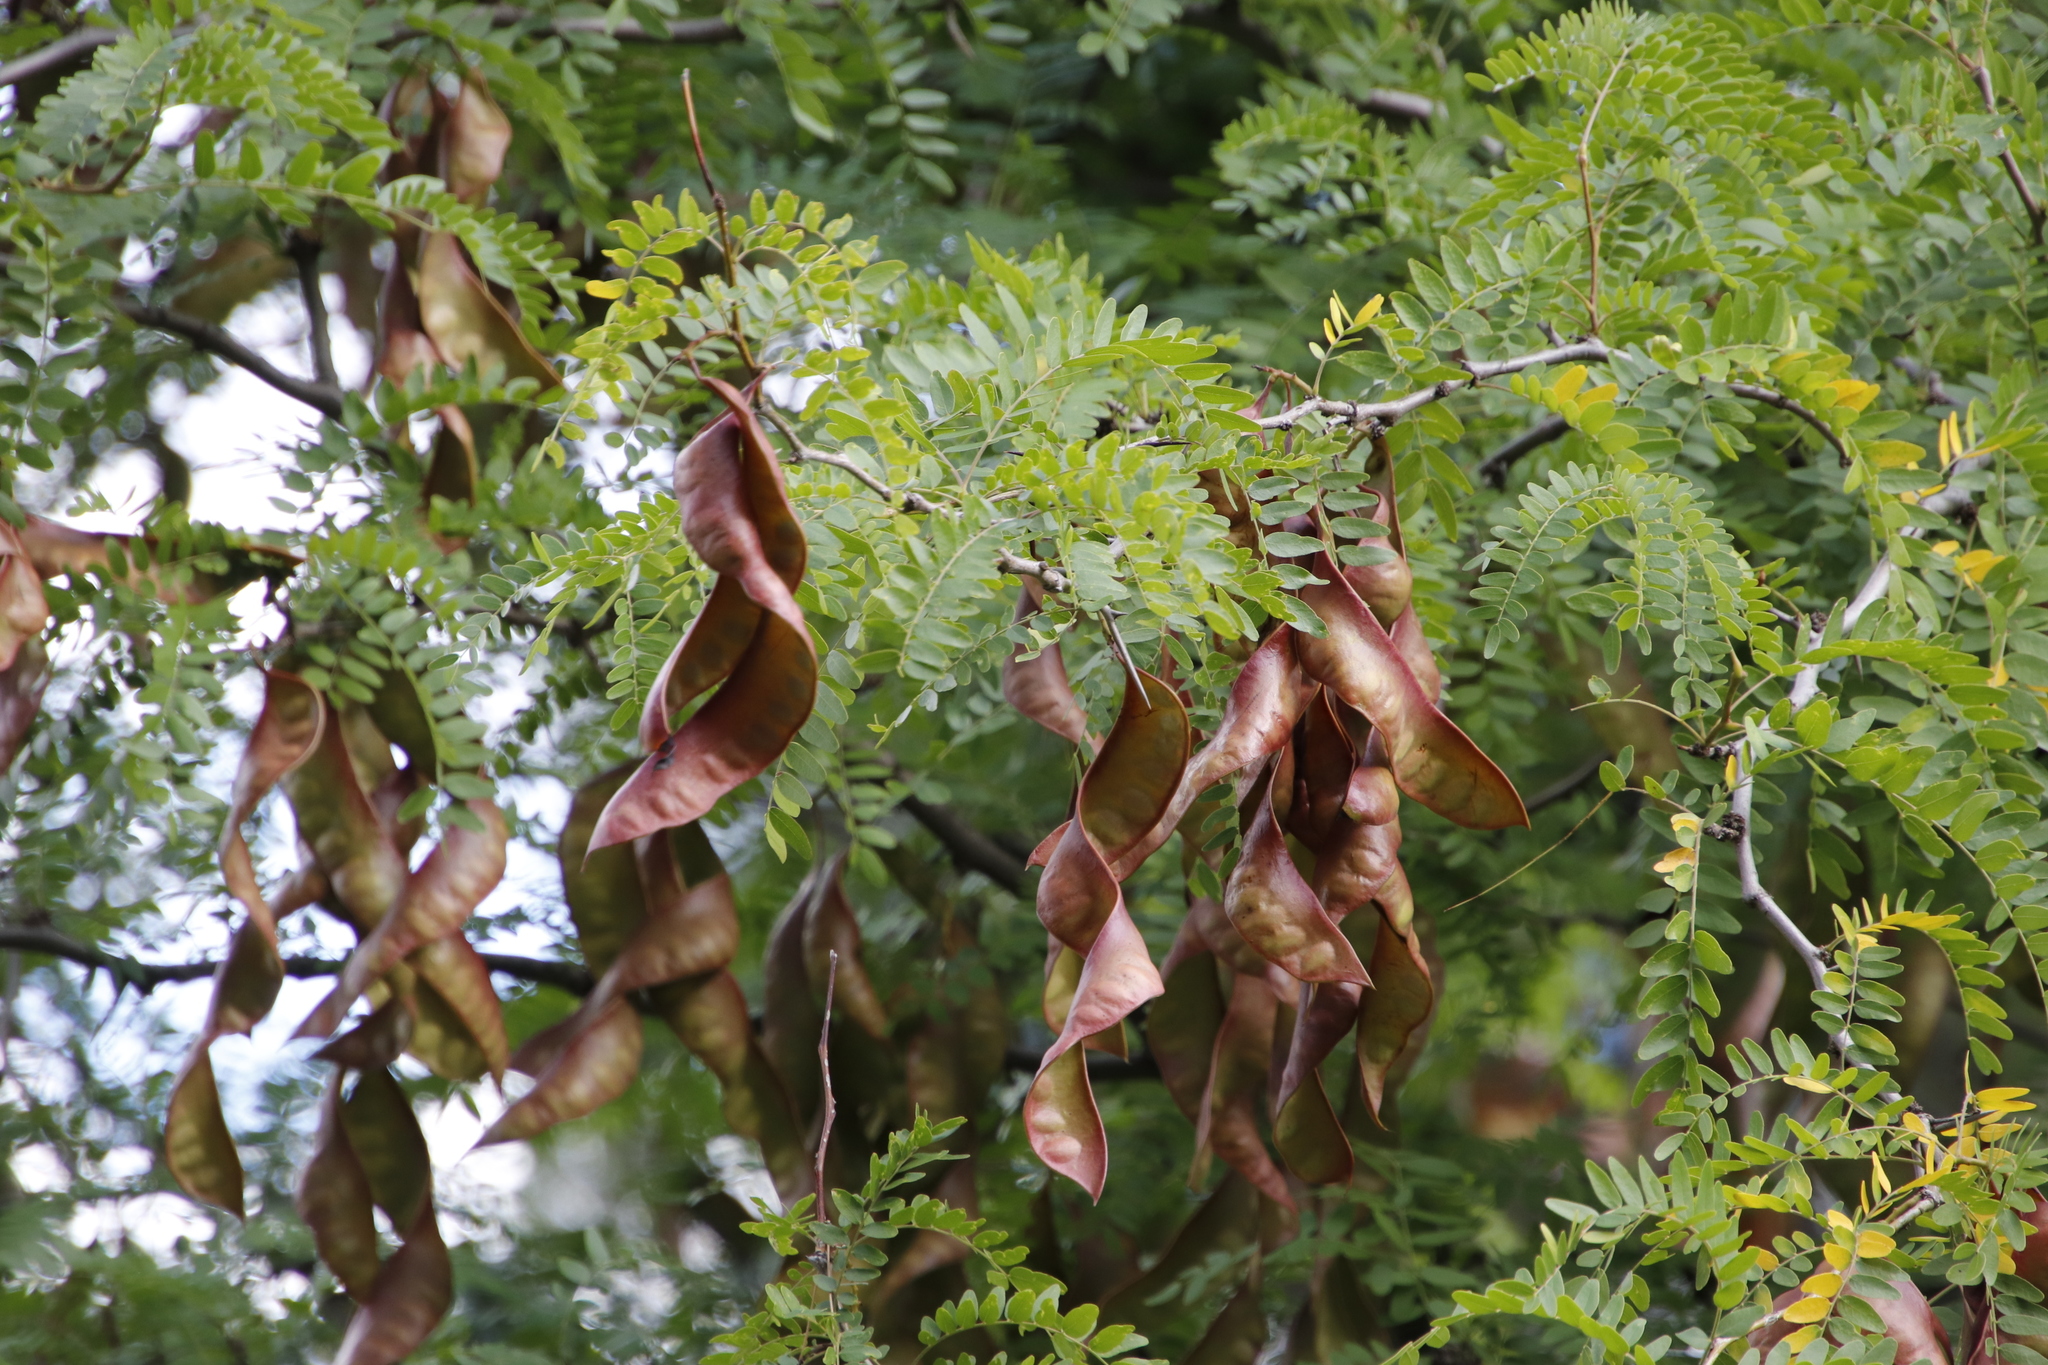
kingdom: Plantae
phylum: Tracheophyta
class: Magnoliopsida
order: Fabales
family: Fabaceae
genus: Gleditsia
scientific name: Gleditsia triacanthos
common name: Common honeylocust
